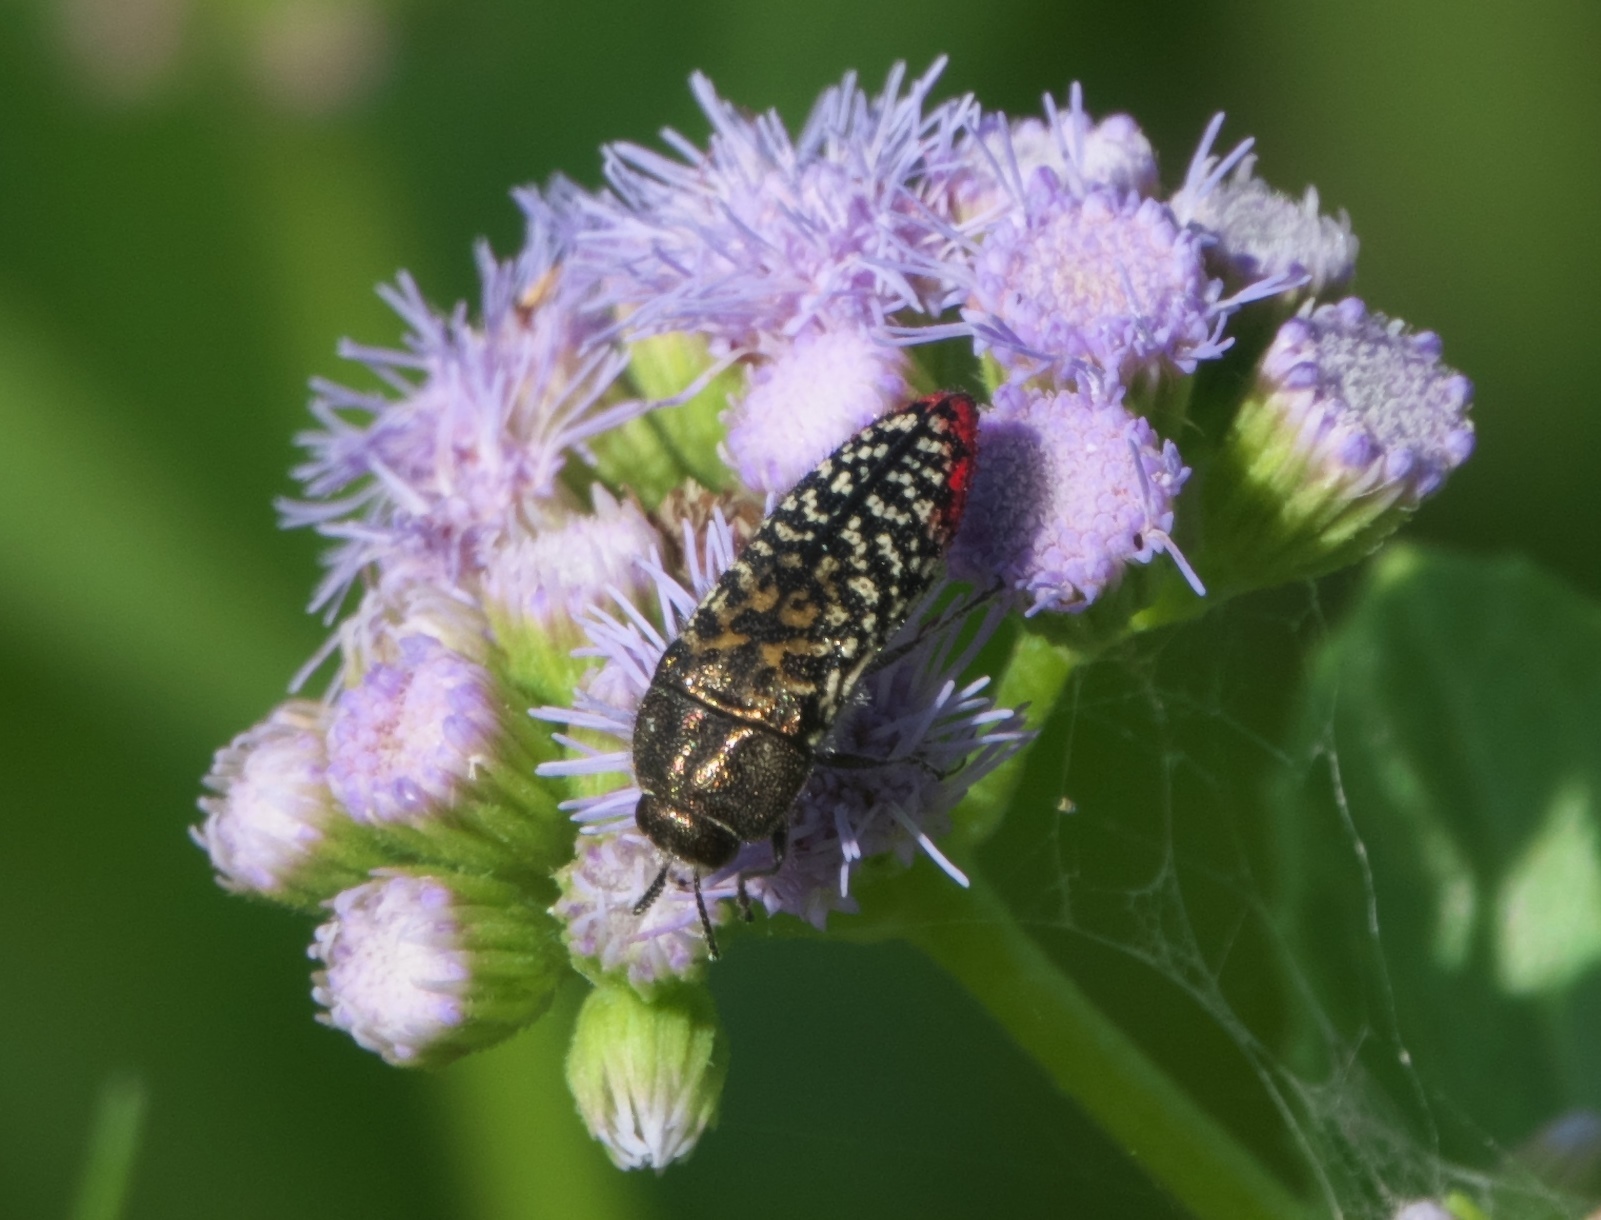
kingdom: Animalia
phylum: Arthropoda
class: Insecta
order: Coleoptera
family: Buprestidae
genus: Acmaeodera
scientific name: Acmaeodera haemorrhoa
